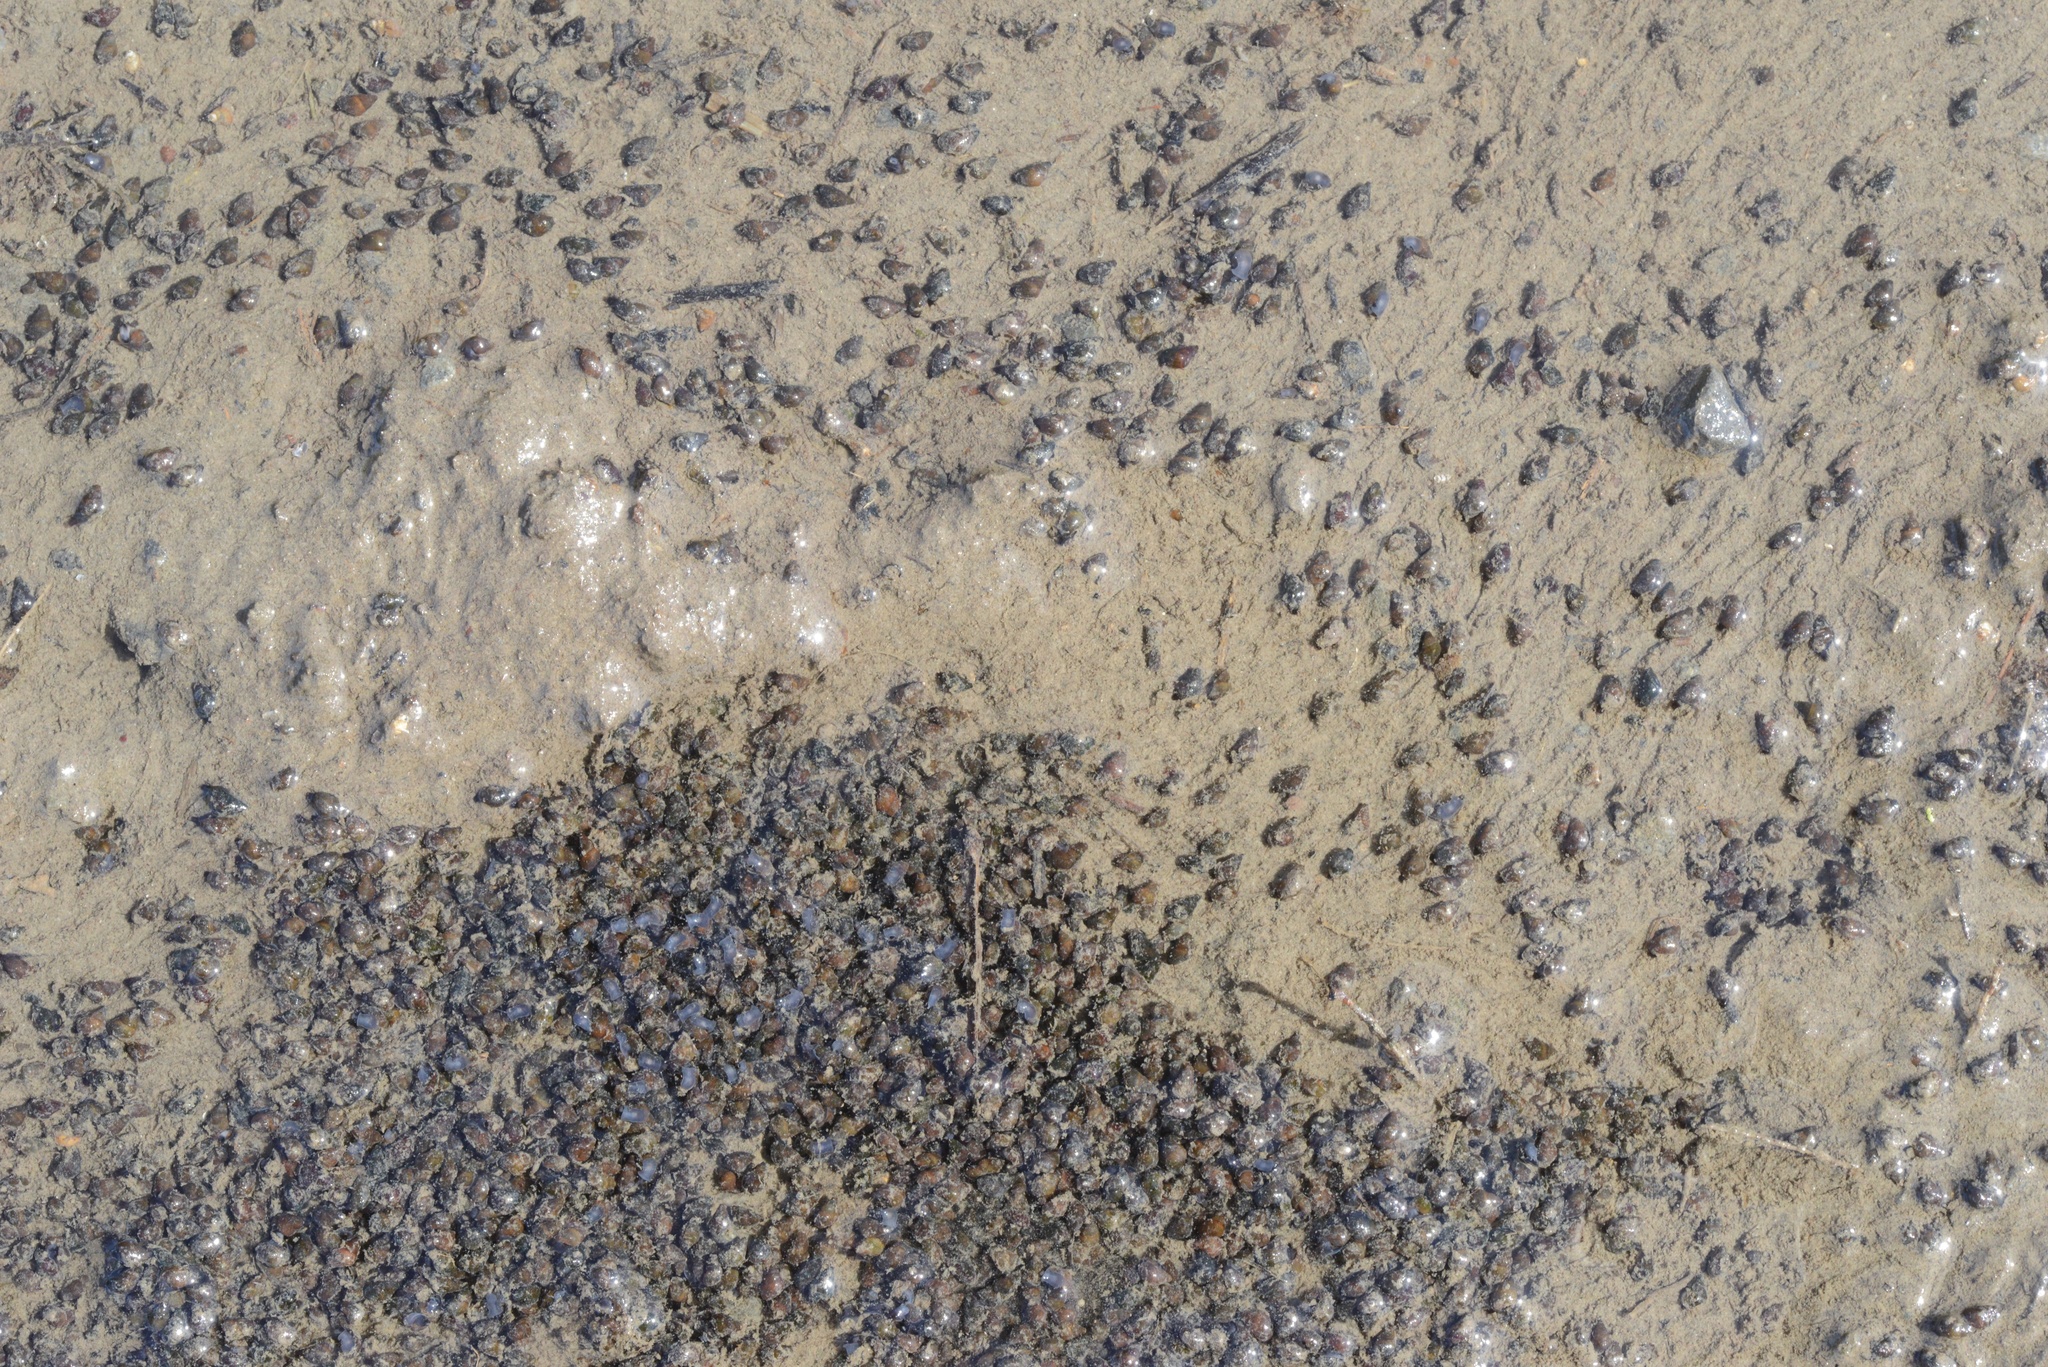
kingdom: Animalia
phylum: Mollusca
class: Gastropoda
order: Littorinimorpha
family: Tateidae
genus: Potamopyrgus
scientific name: Potamopyrgus estuarinus
